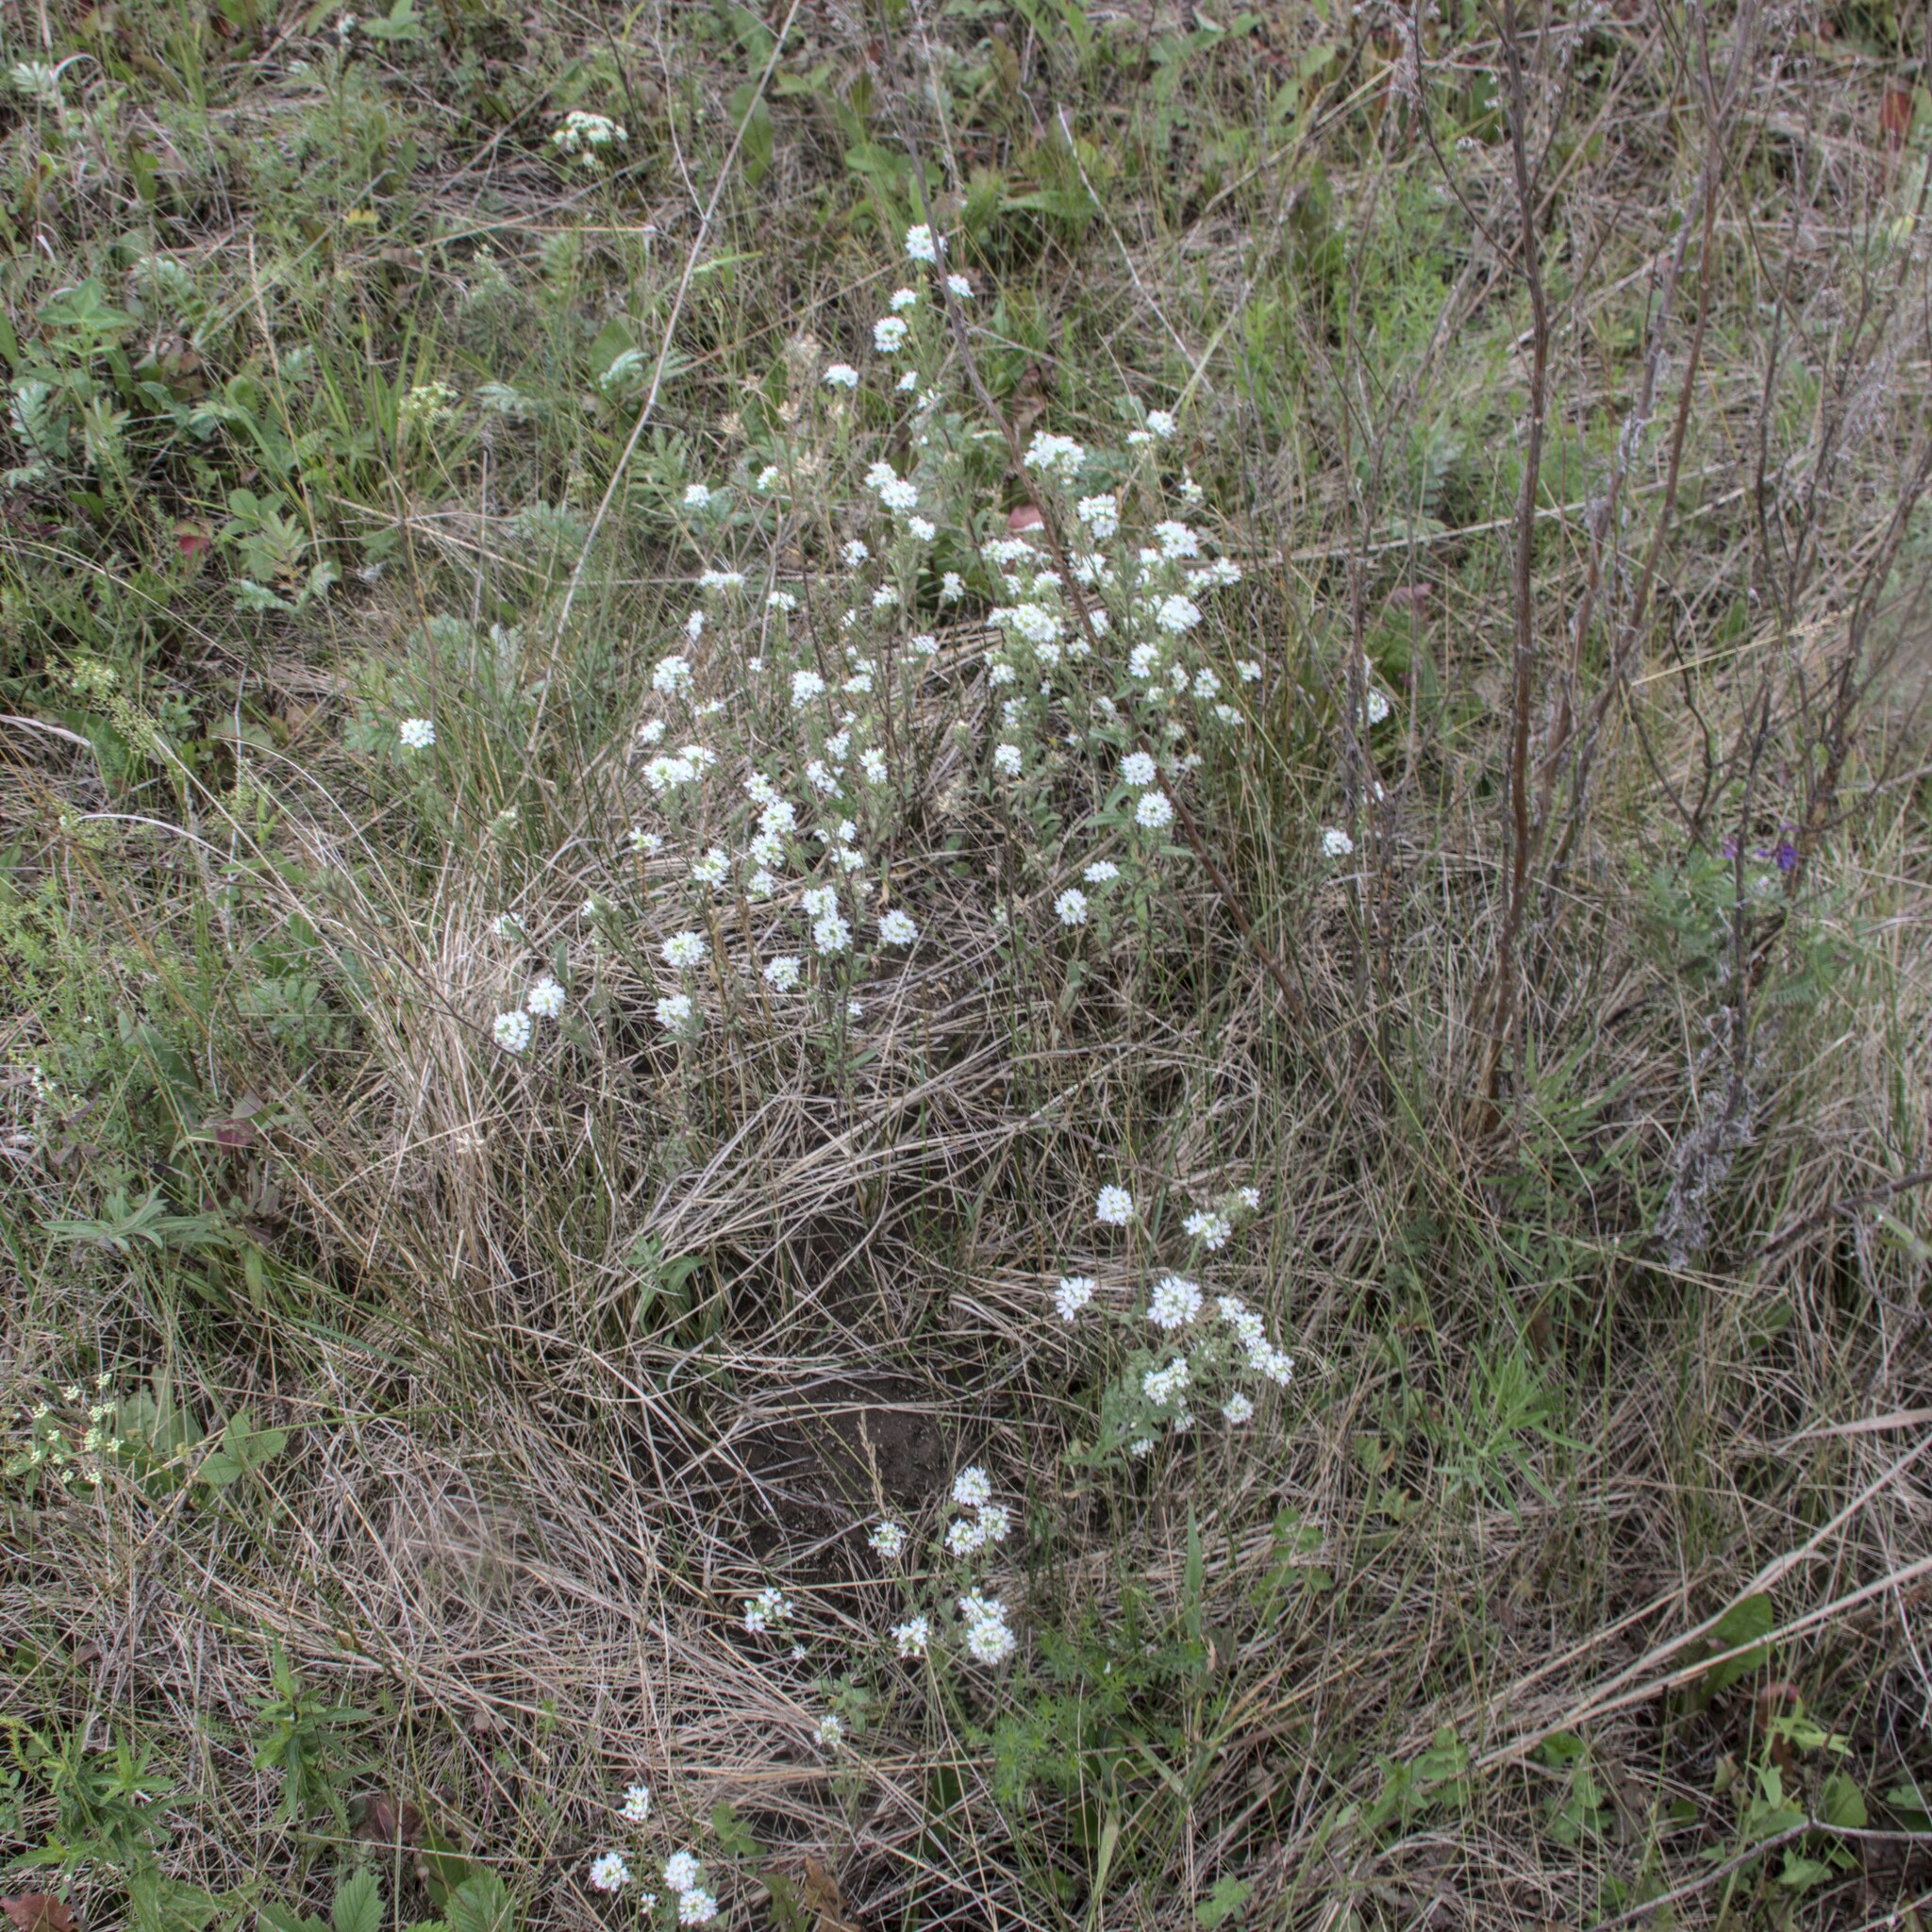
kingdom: Plantae
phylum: Tracheophyta
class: Magnoliopsida
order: Brassicales
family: Brassicaceae
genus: Berteroa
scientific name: Berteroa incana
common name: Hoary alison
